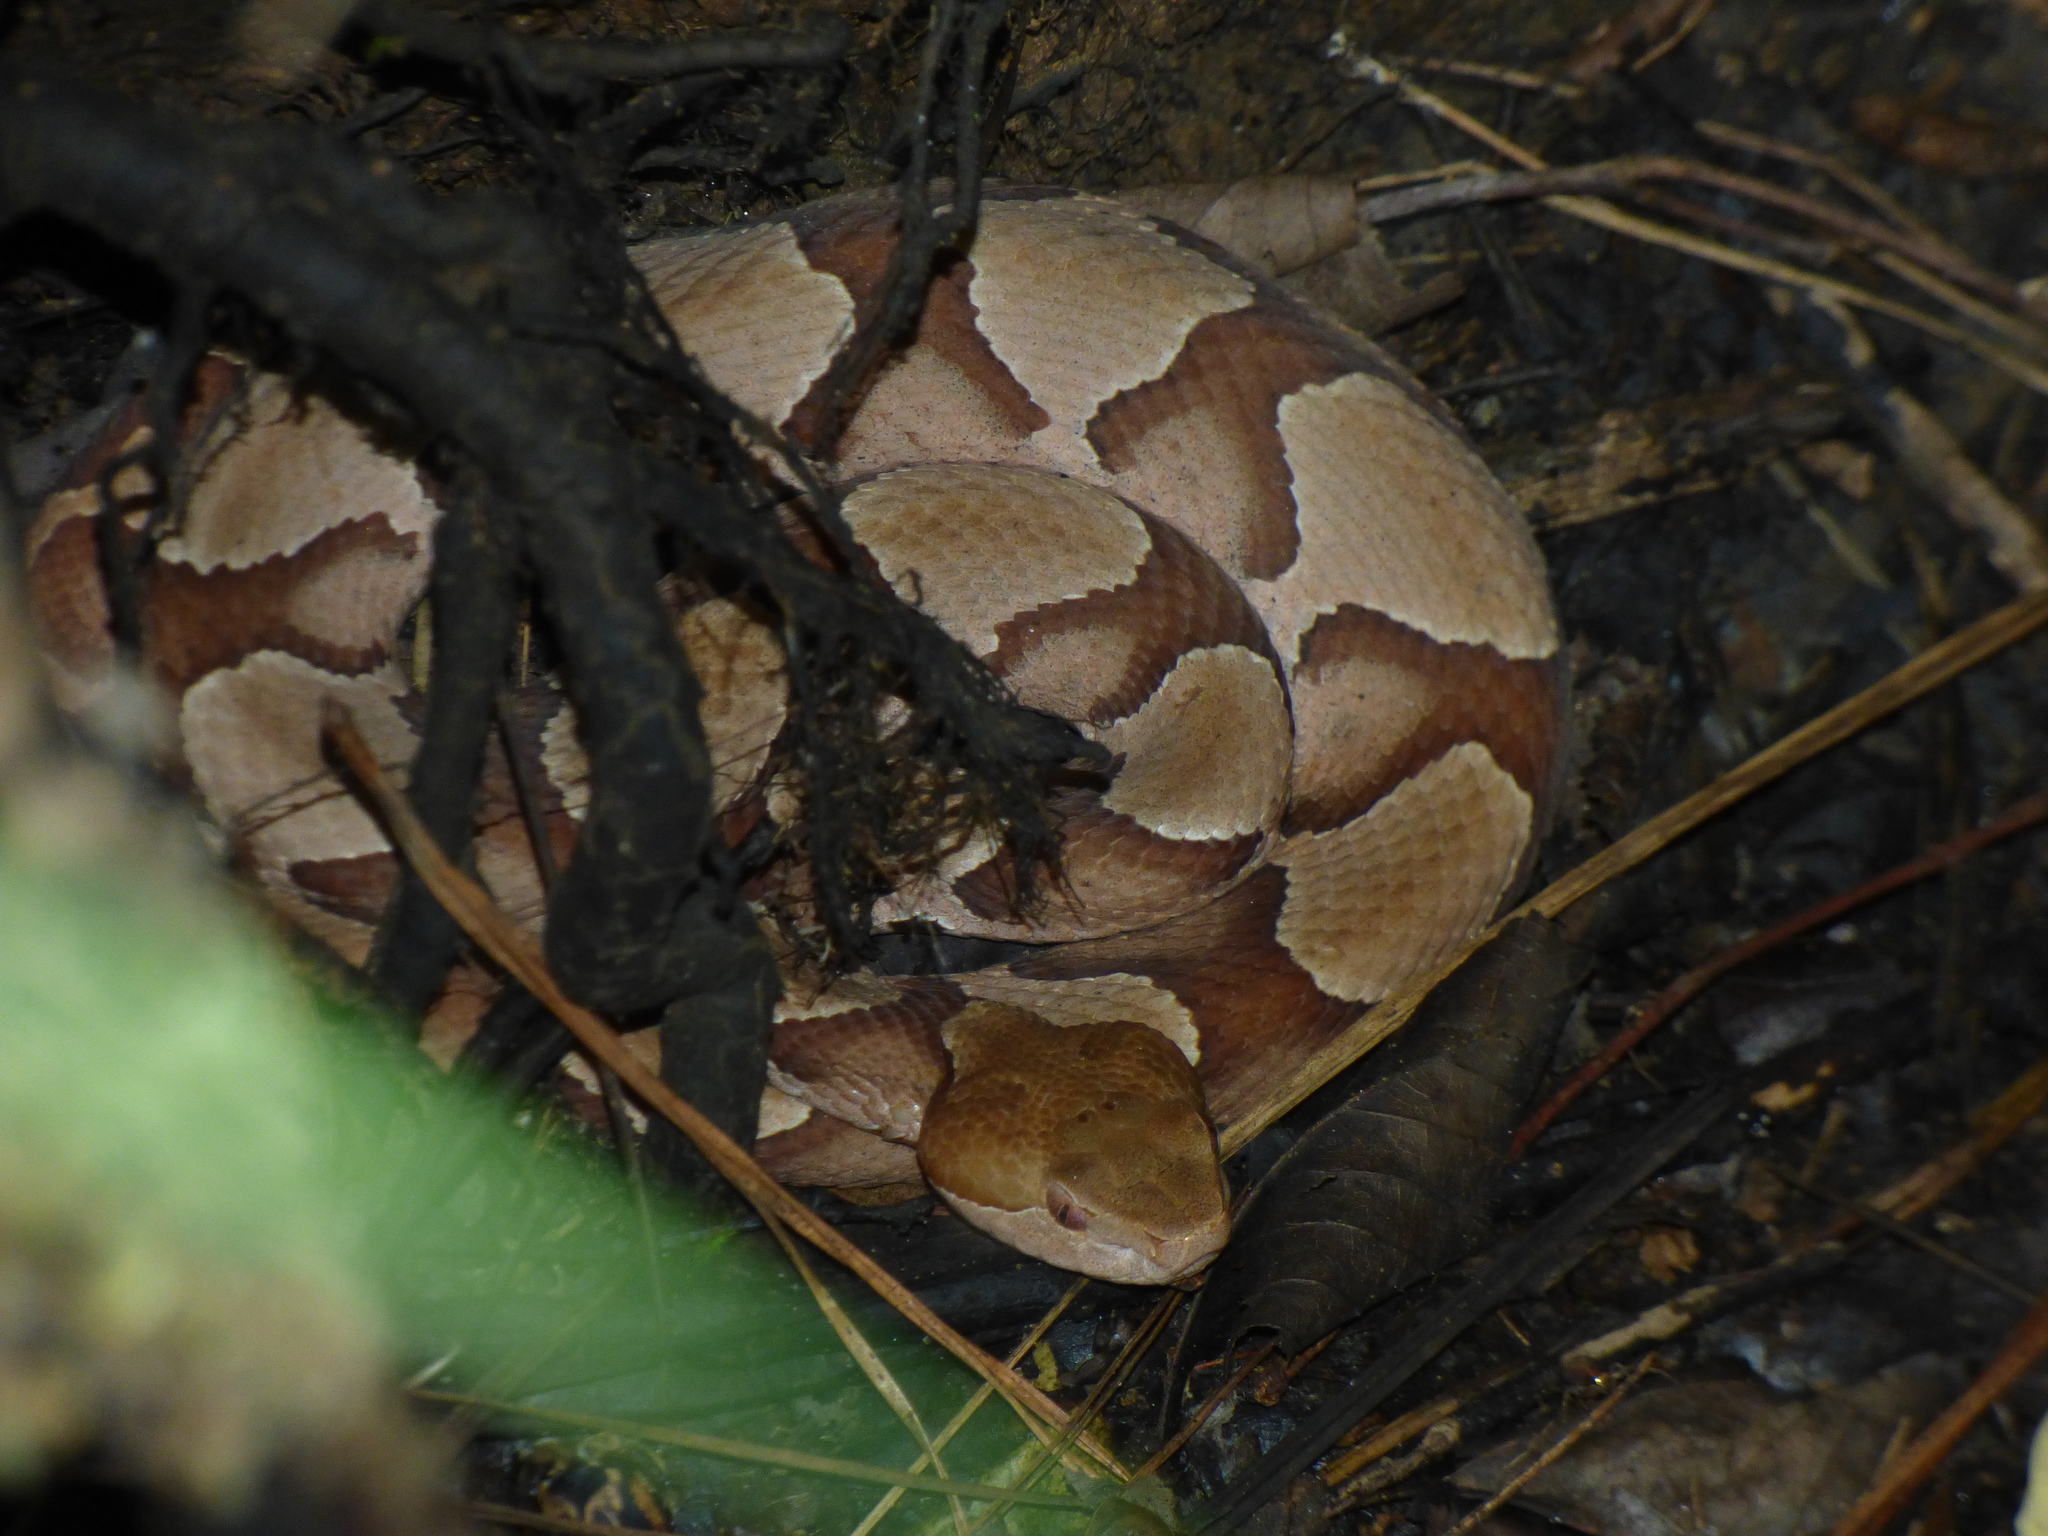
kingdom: Animalia
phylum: Chordata
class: Squamata
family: Viperidae
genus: Agkistrodon
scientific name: Agkistrodon contortrix
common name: Northern copperhead
